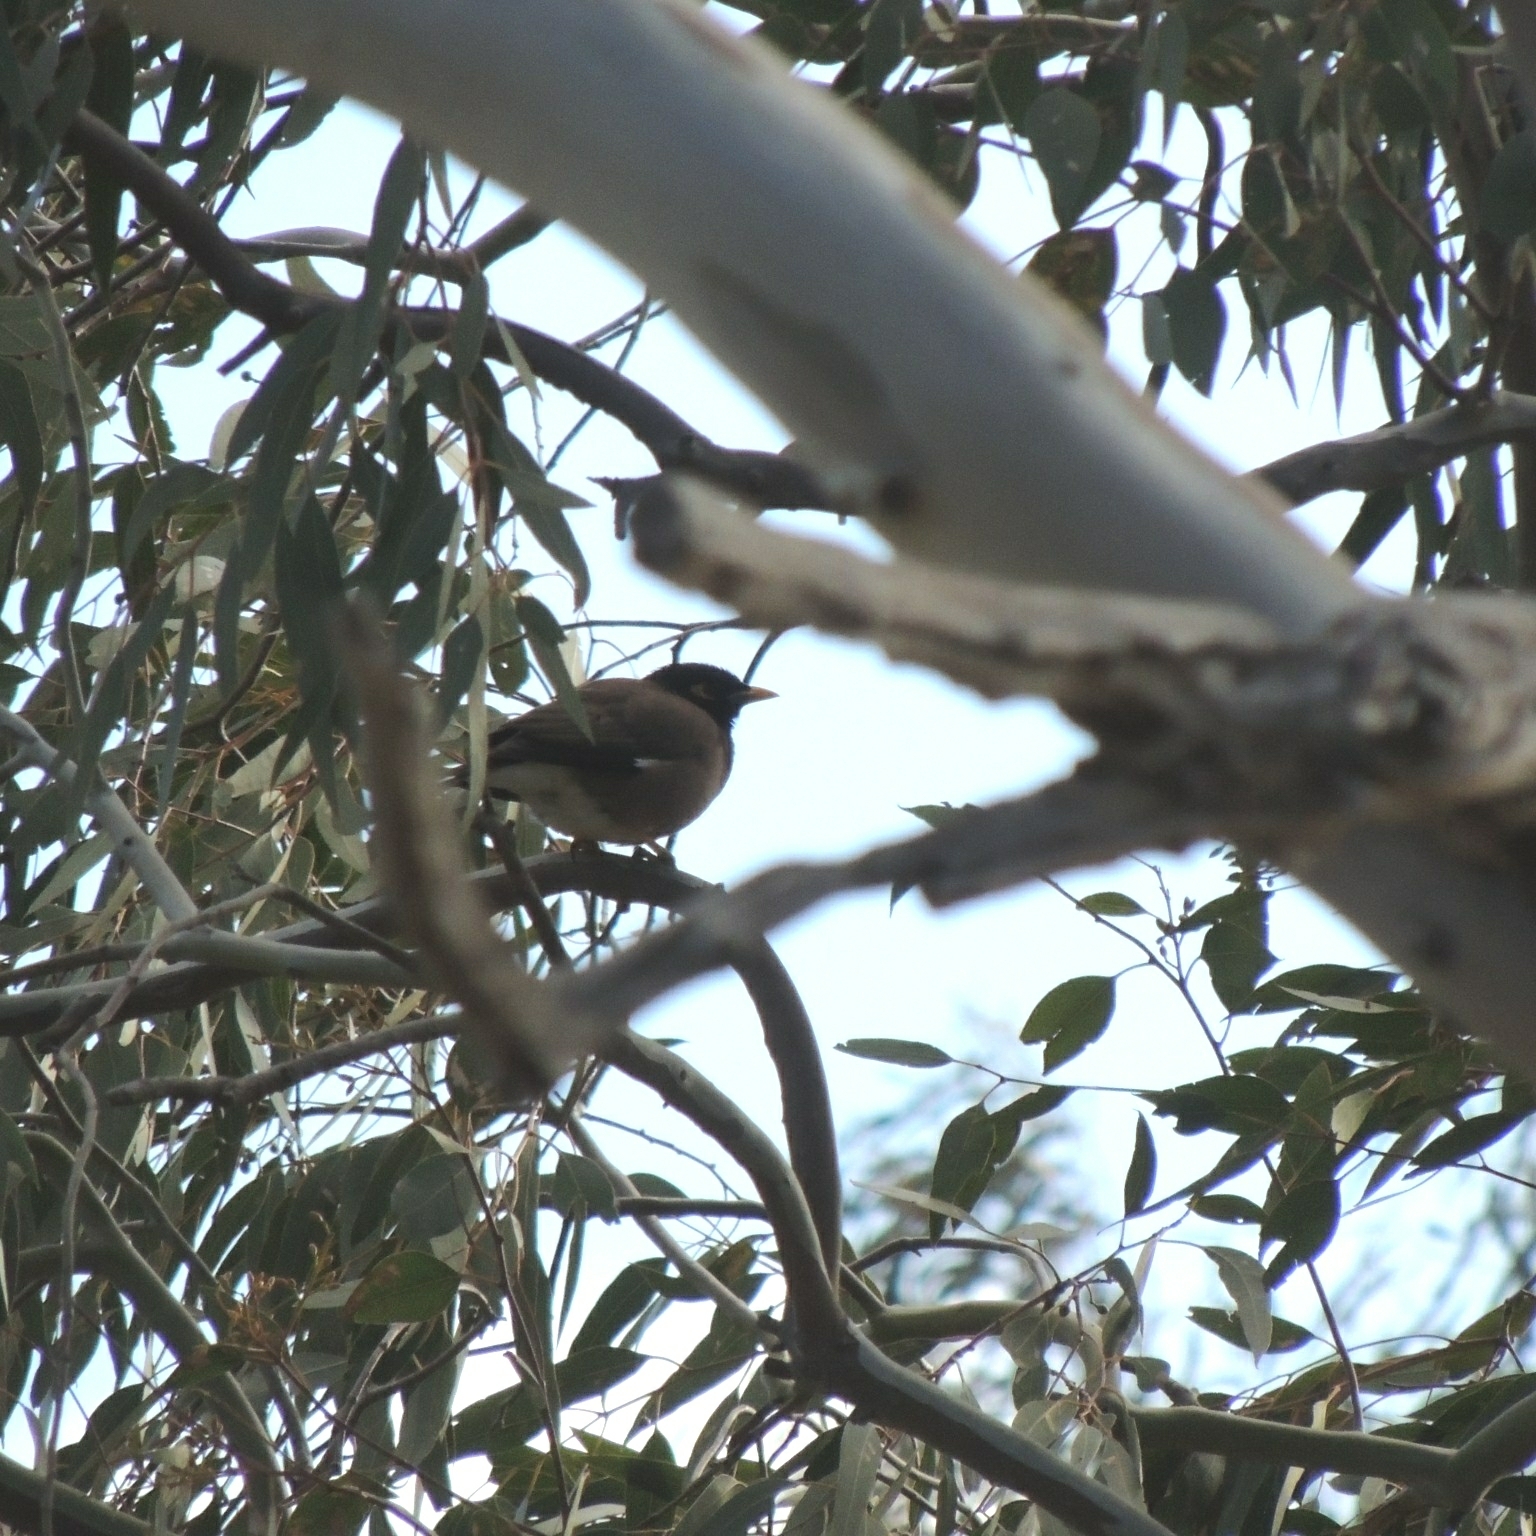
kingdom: Animalia
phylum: Chordata
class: Aves
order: Passeriformes
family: Sturnidae
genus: Acridotheres
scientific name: Acridotheres tristis
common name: Common myna
